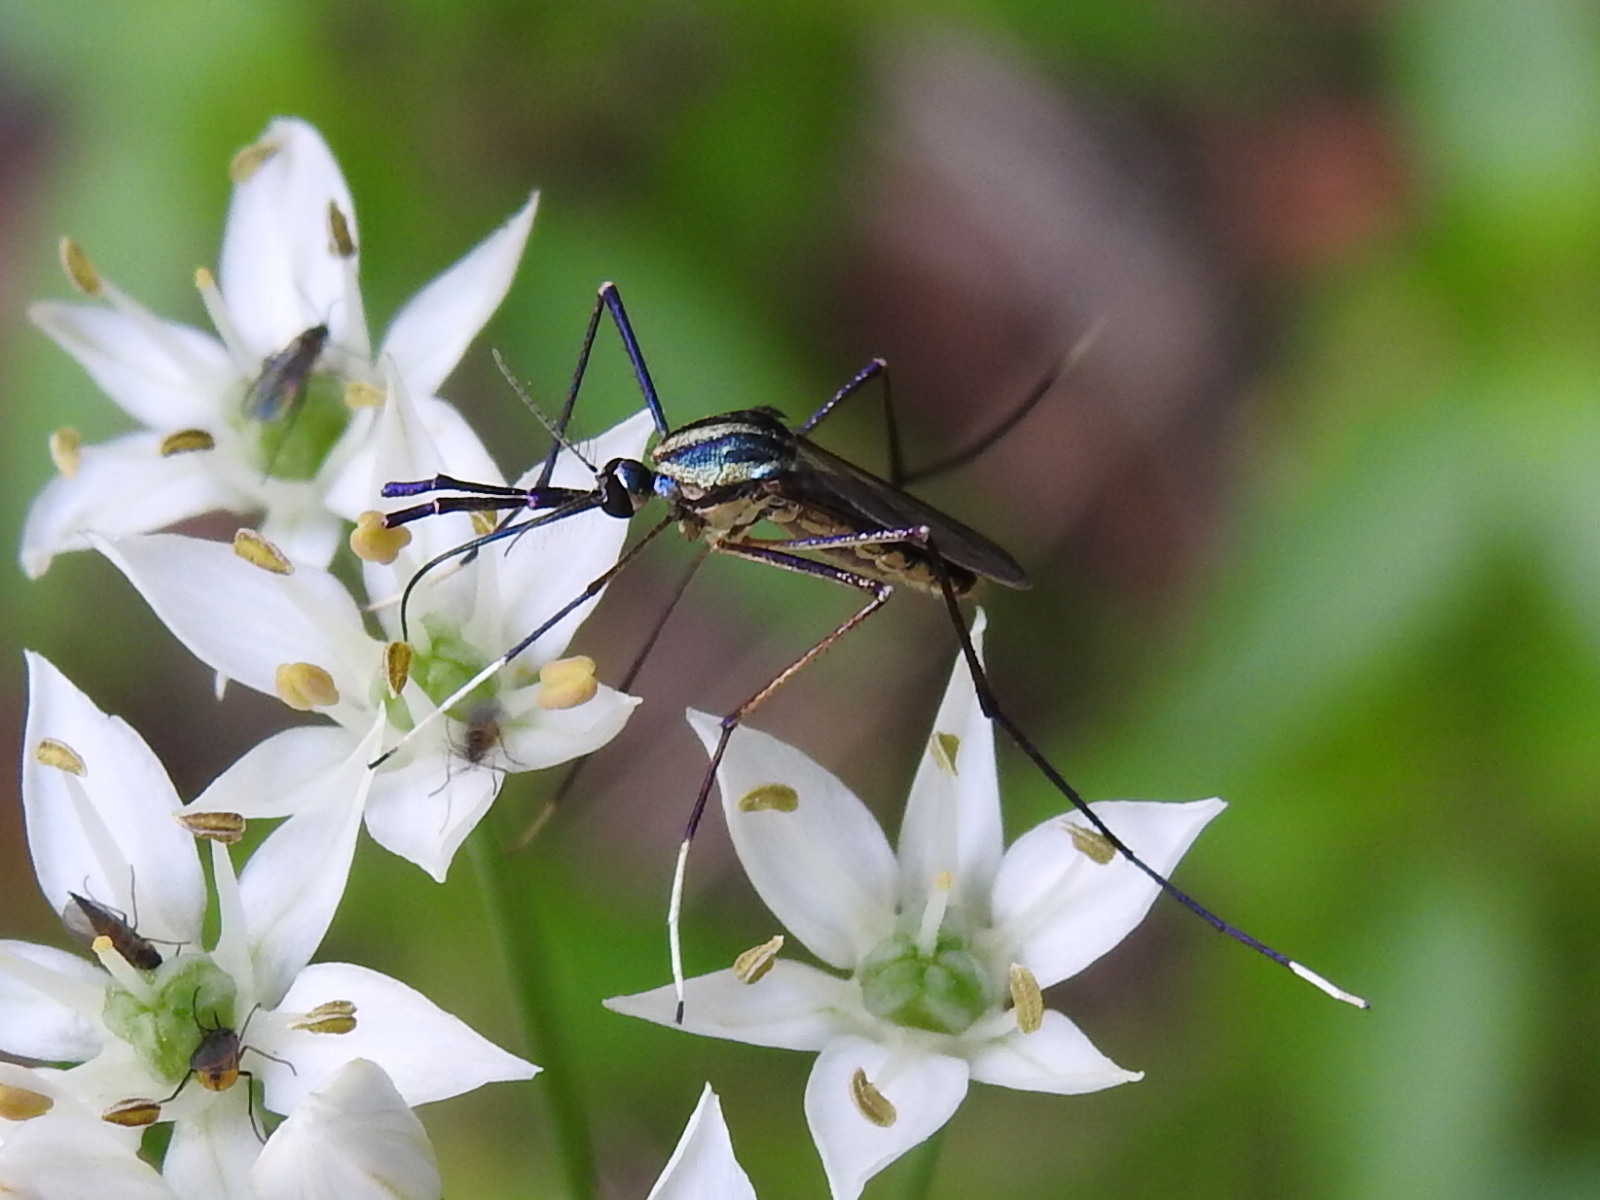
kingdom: Animalia
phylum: Arthropoda
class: Insecta
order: Diptera
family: Culicidae
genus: Toxorhynchites
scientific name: Toxorhynchites rutilus
